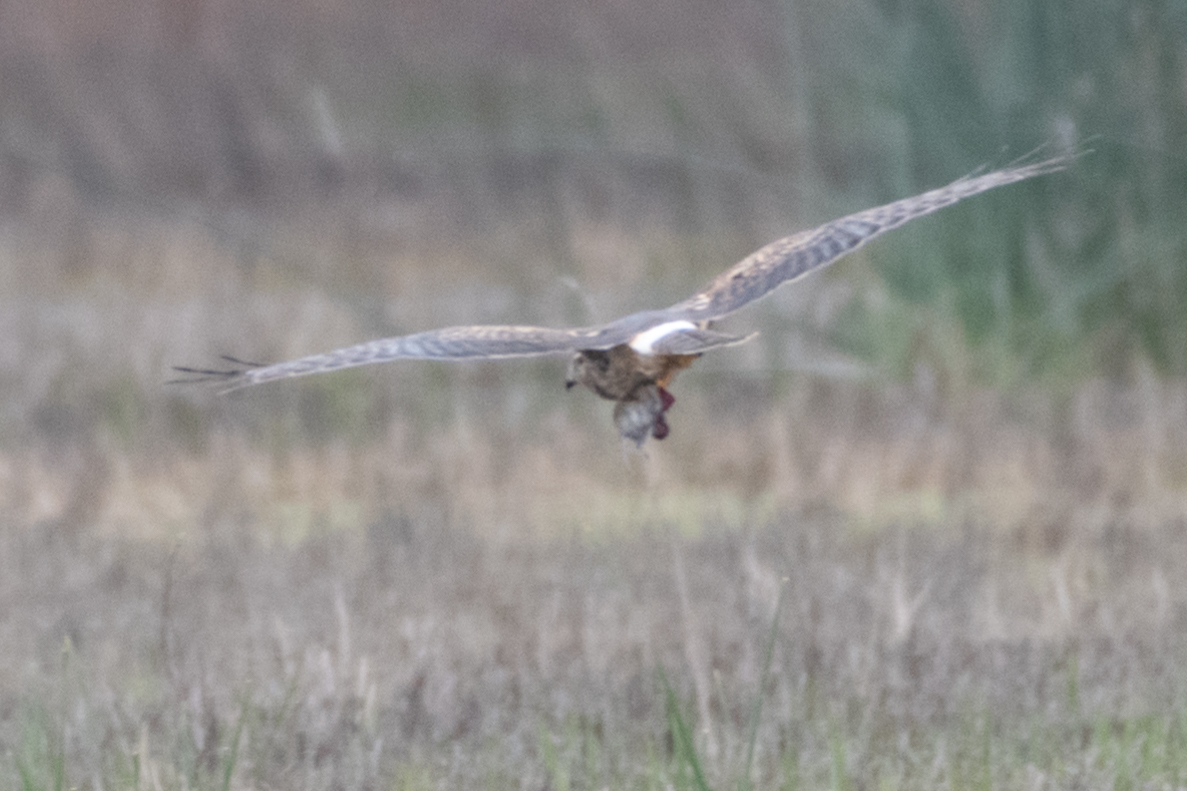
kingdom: Animalia
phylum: Chordata
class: Aves
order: Accipitriformes
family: Accipitridae
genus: Circus
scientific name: Circus cyaneus
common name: Hen harrier
